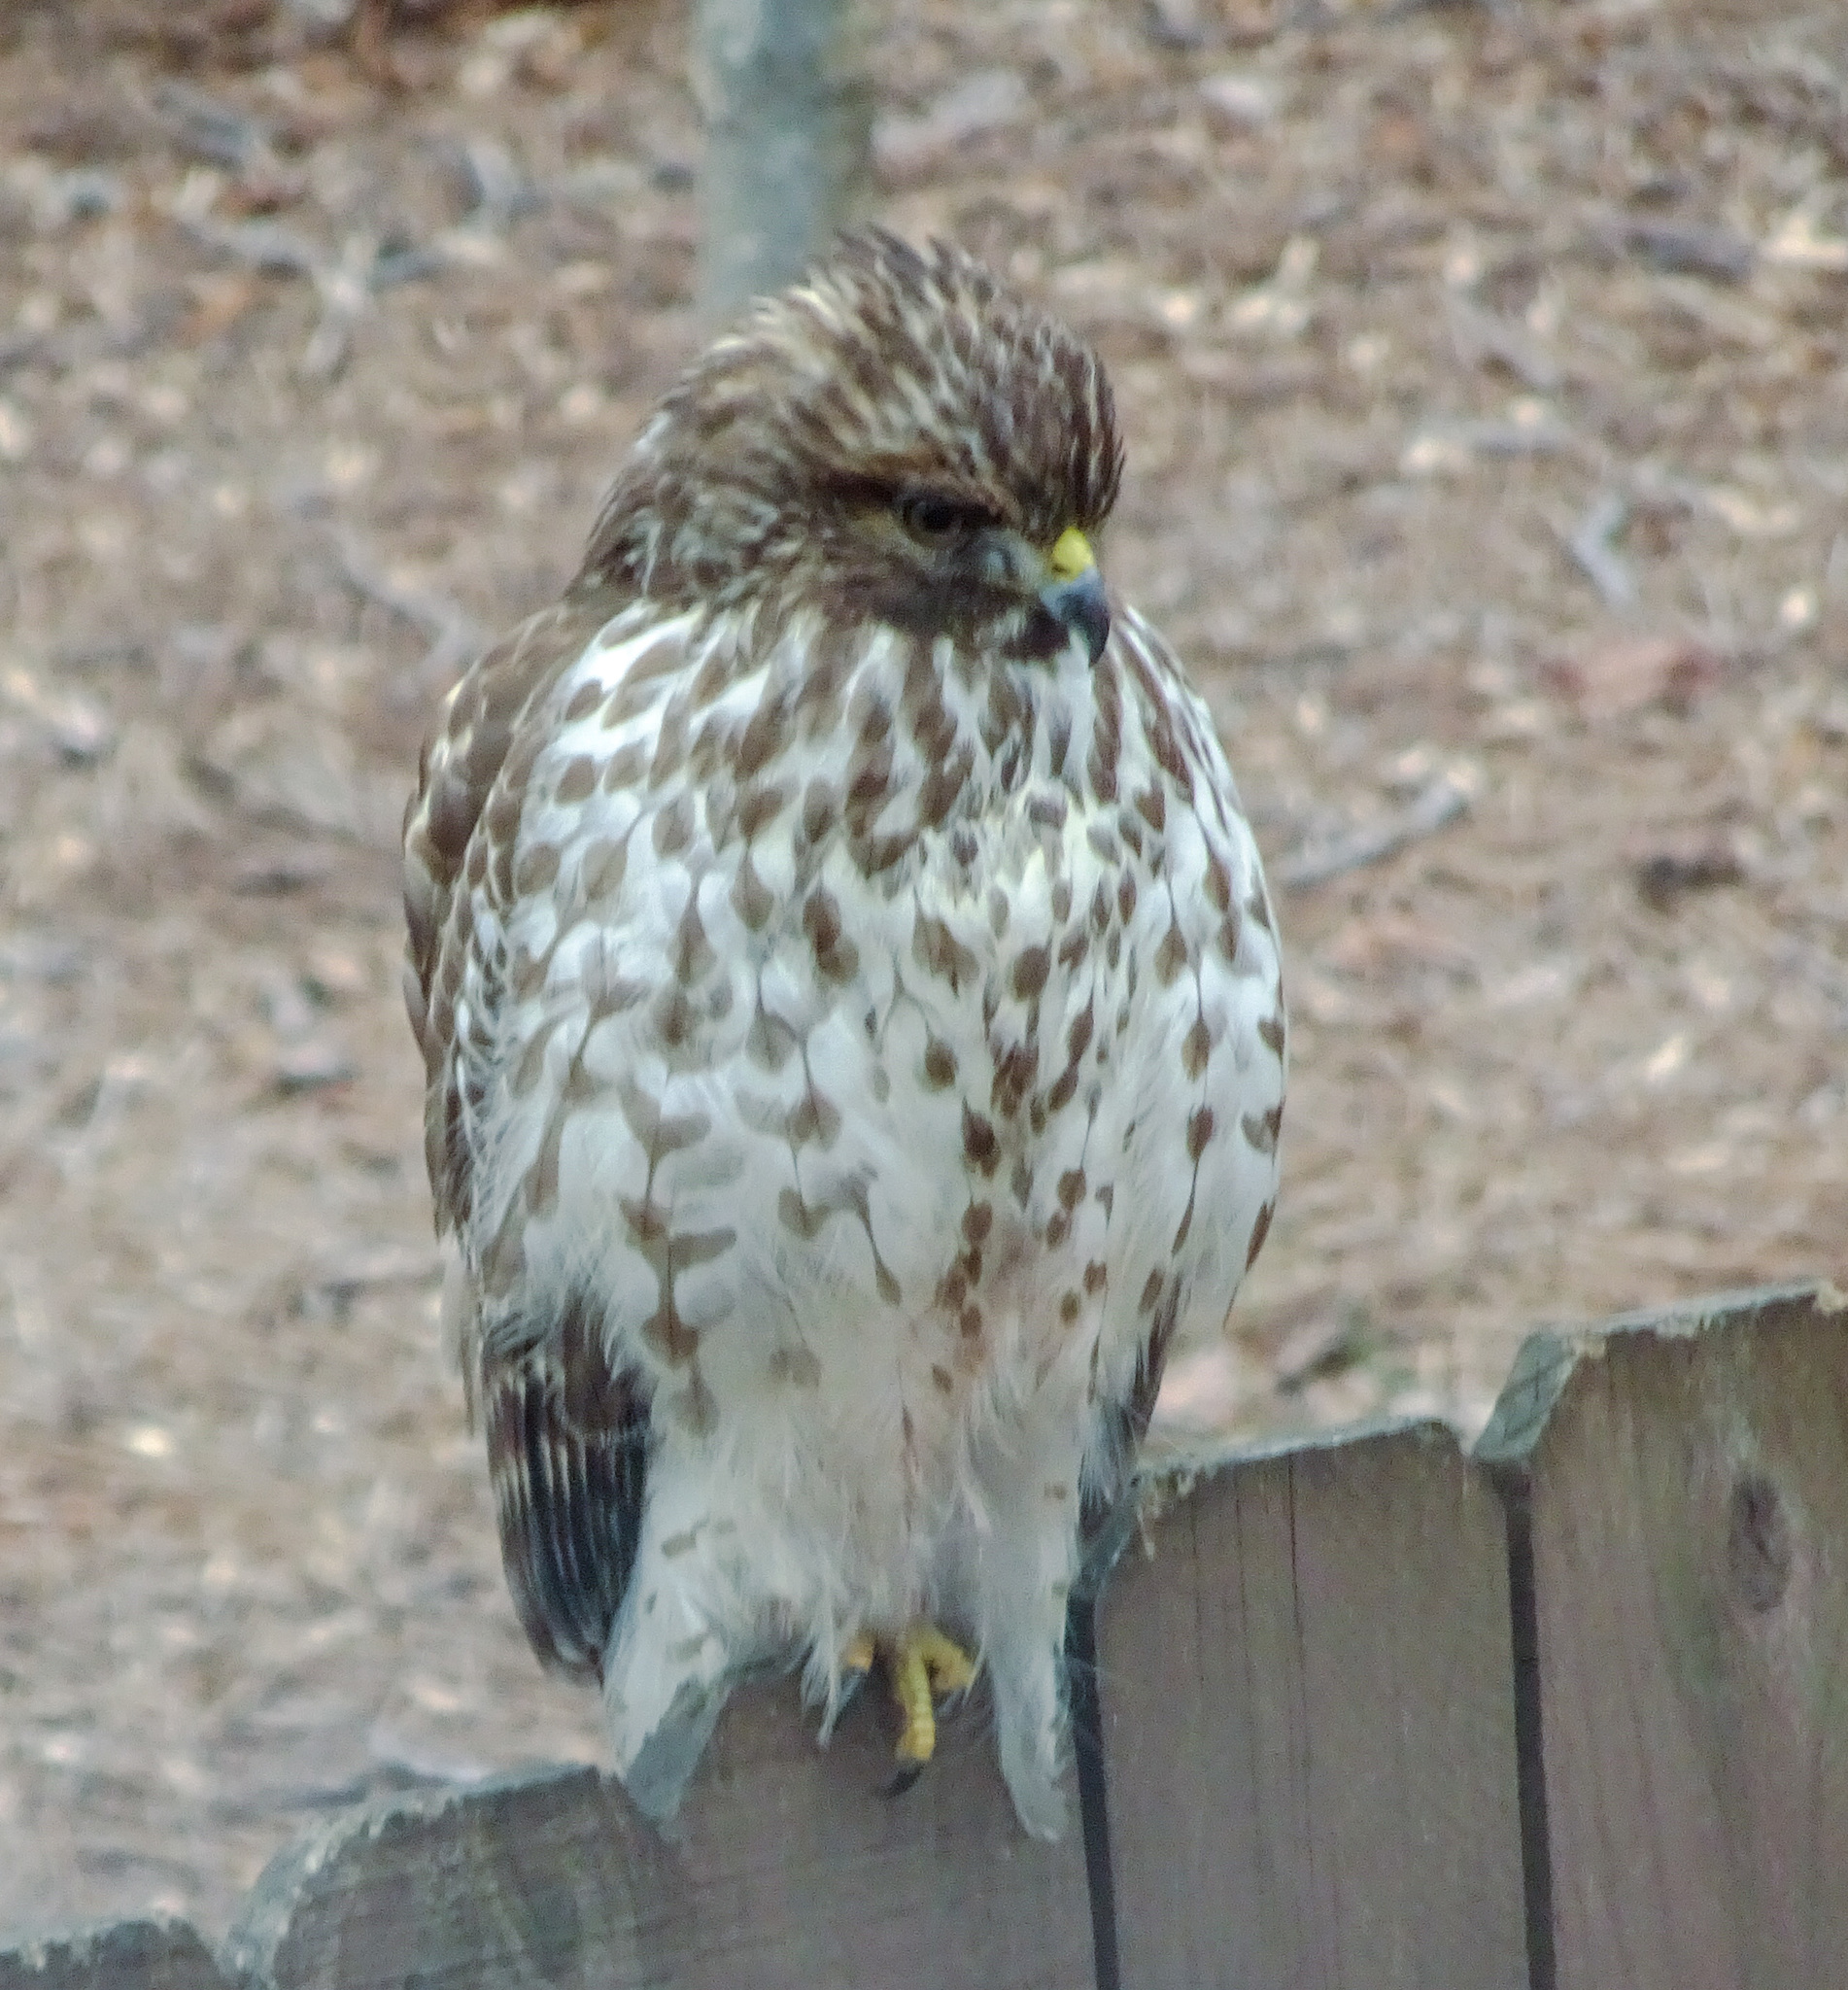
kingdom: Animalia
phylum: Chordata
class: Aves
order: Accipitriformes
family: Accipitridae
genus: Buteo
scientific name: Buteo lineatus
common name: Red-shouldered hawk
